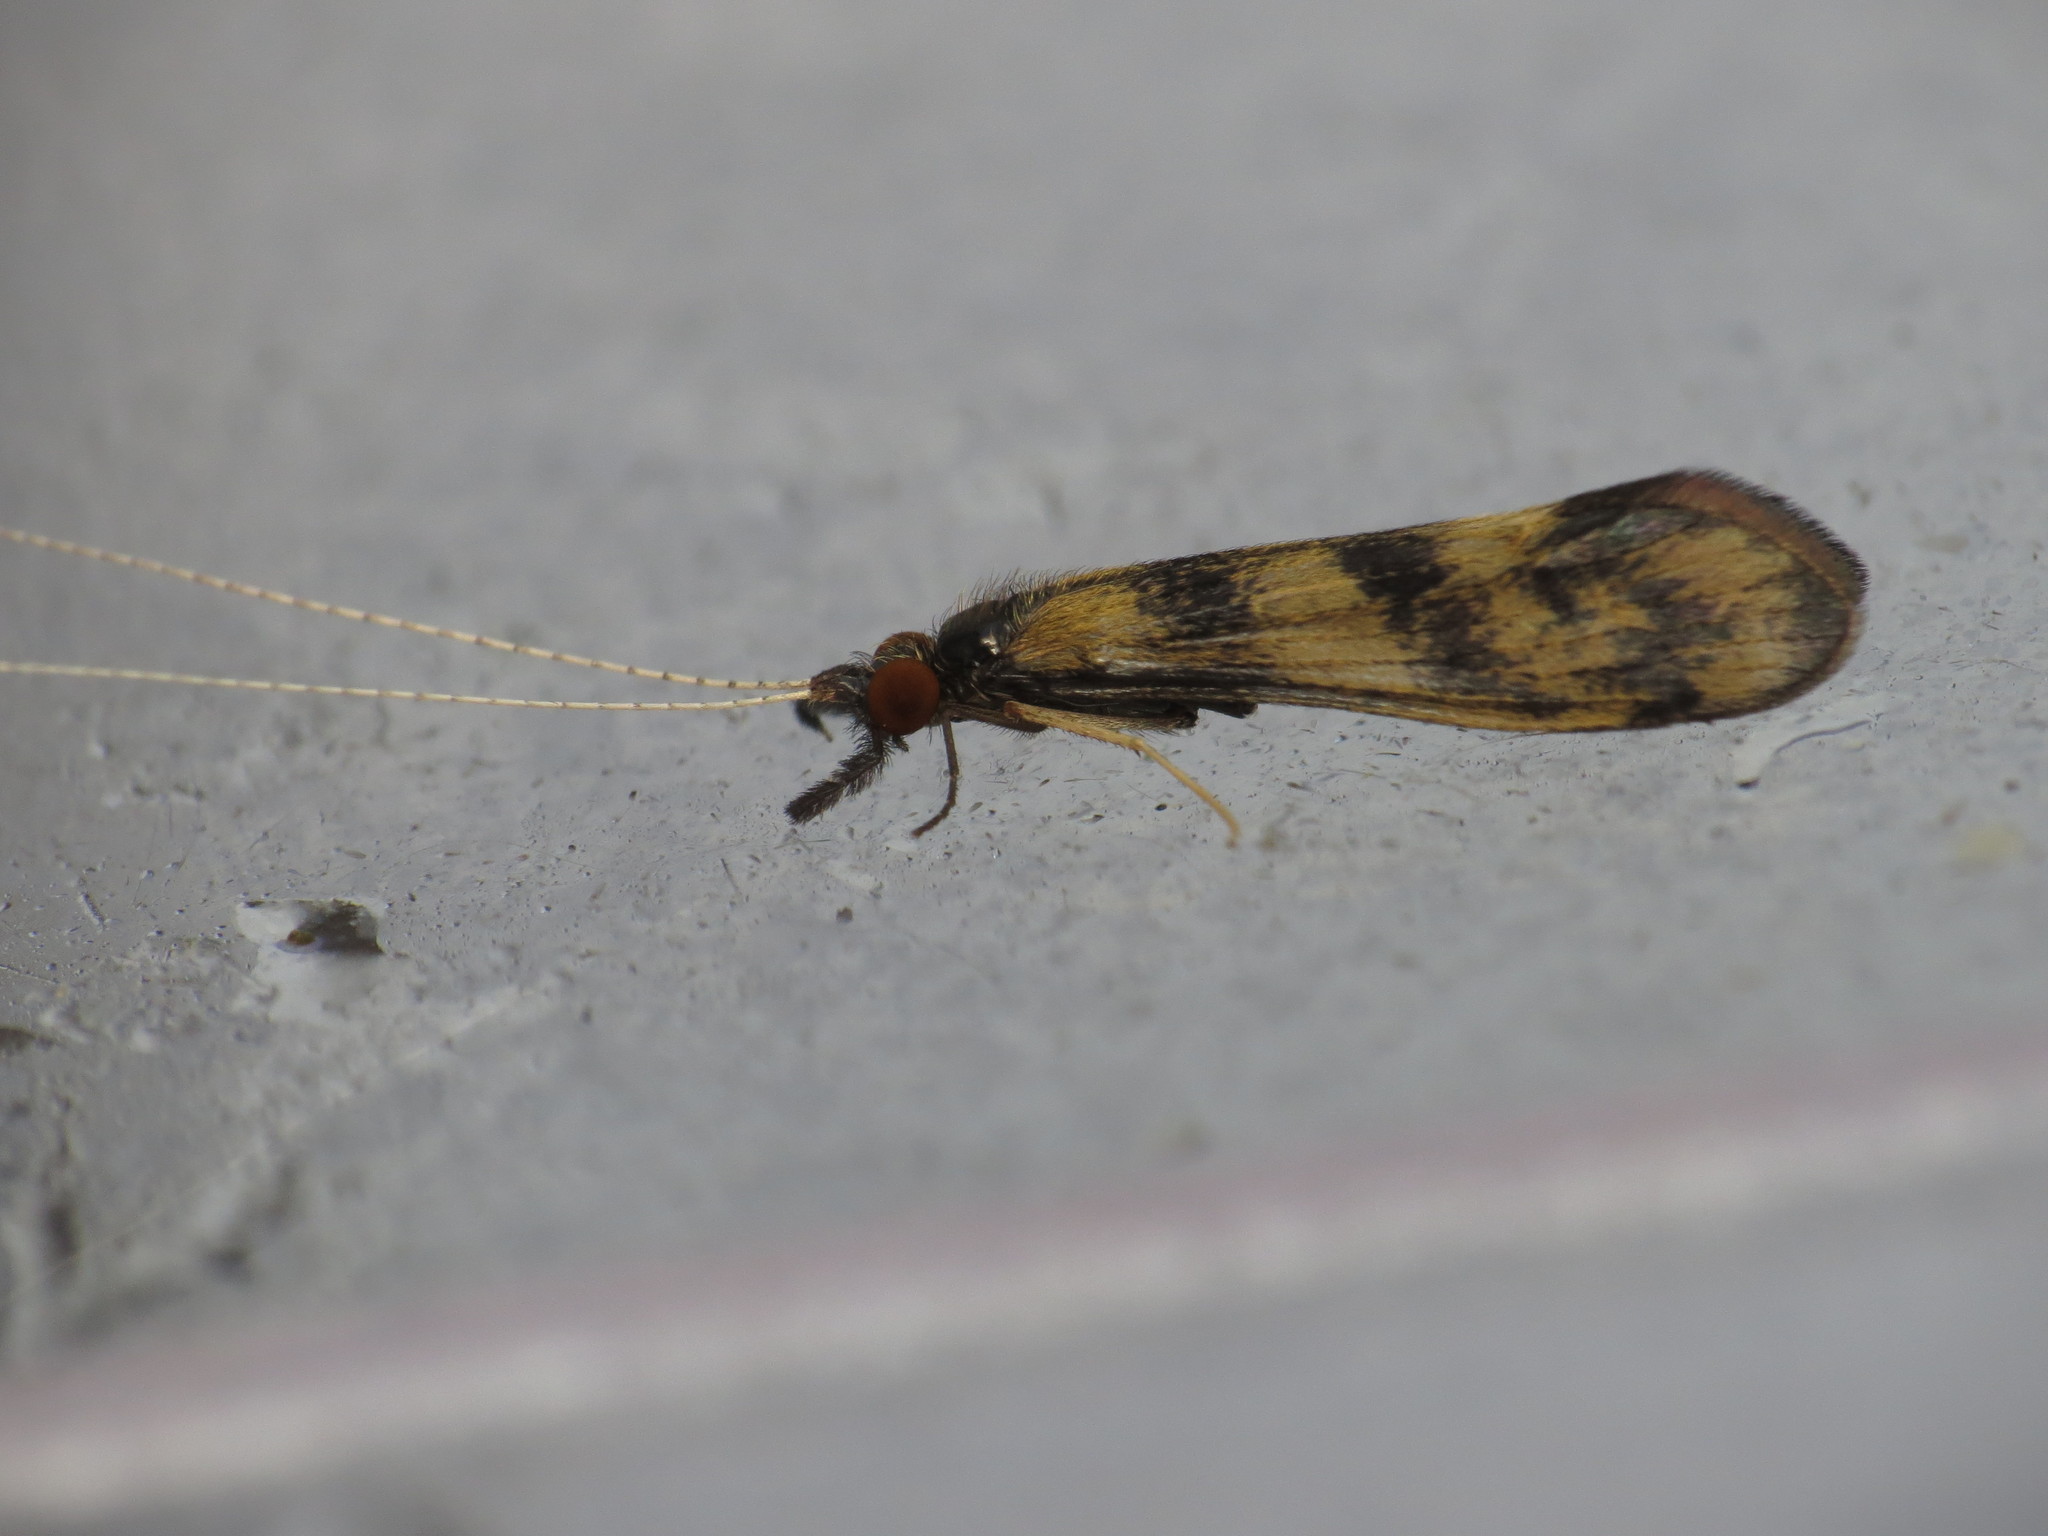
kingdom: Animalia
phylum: Arthropoda
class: Insecta
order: Trichoptera
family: Leptoceridae
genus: Mystacides
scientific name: Mystacides longicornis
